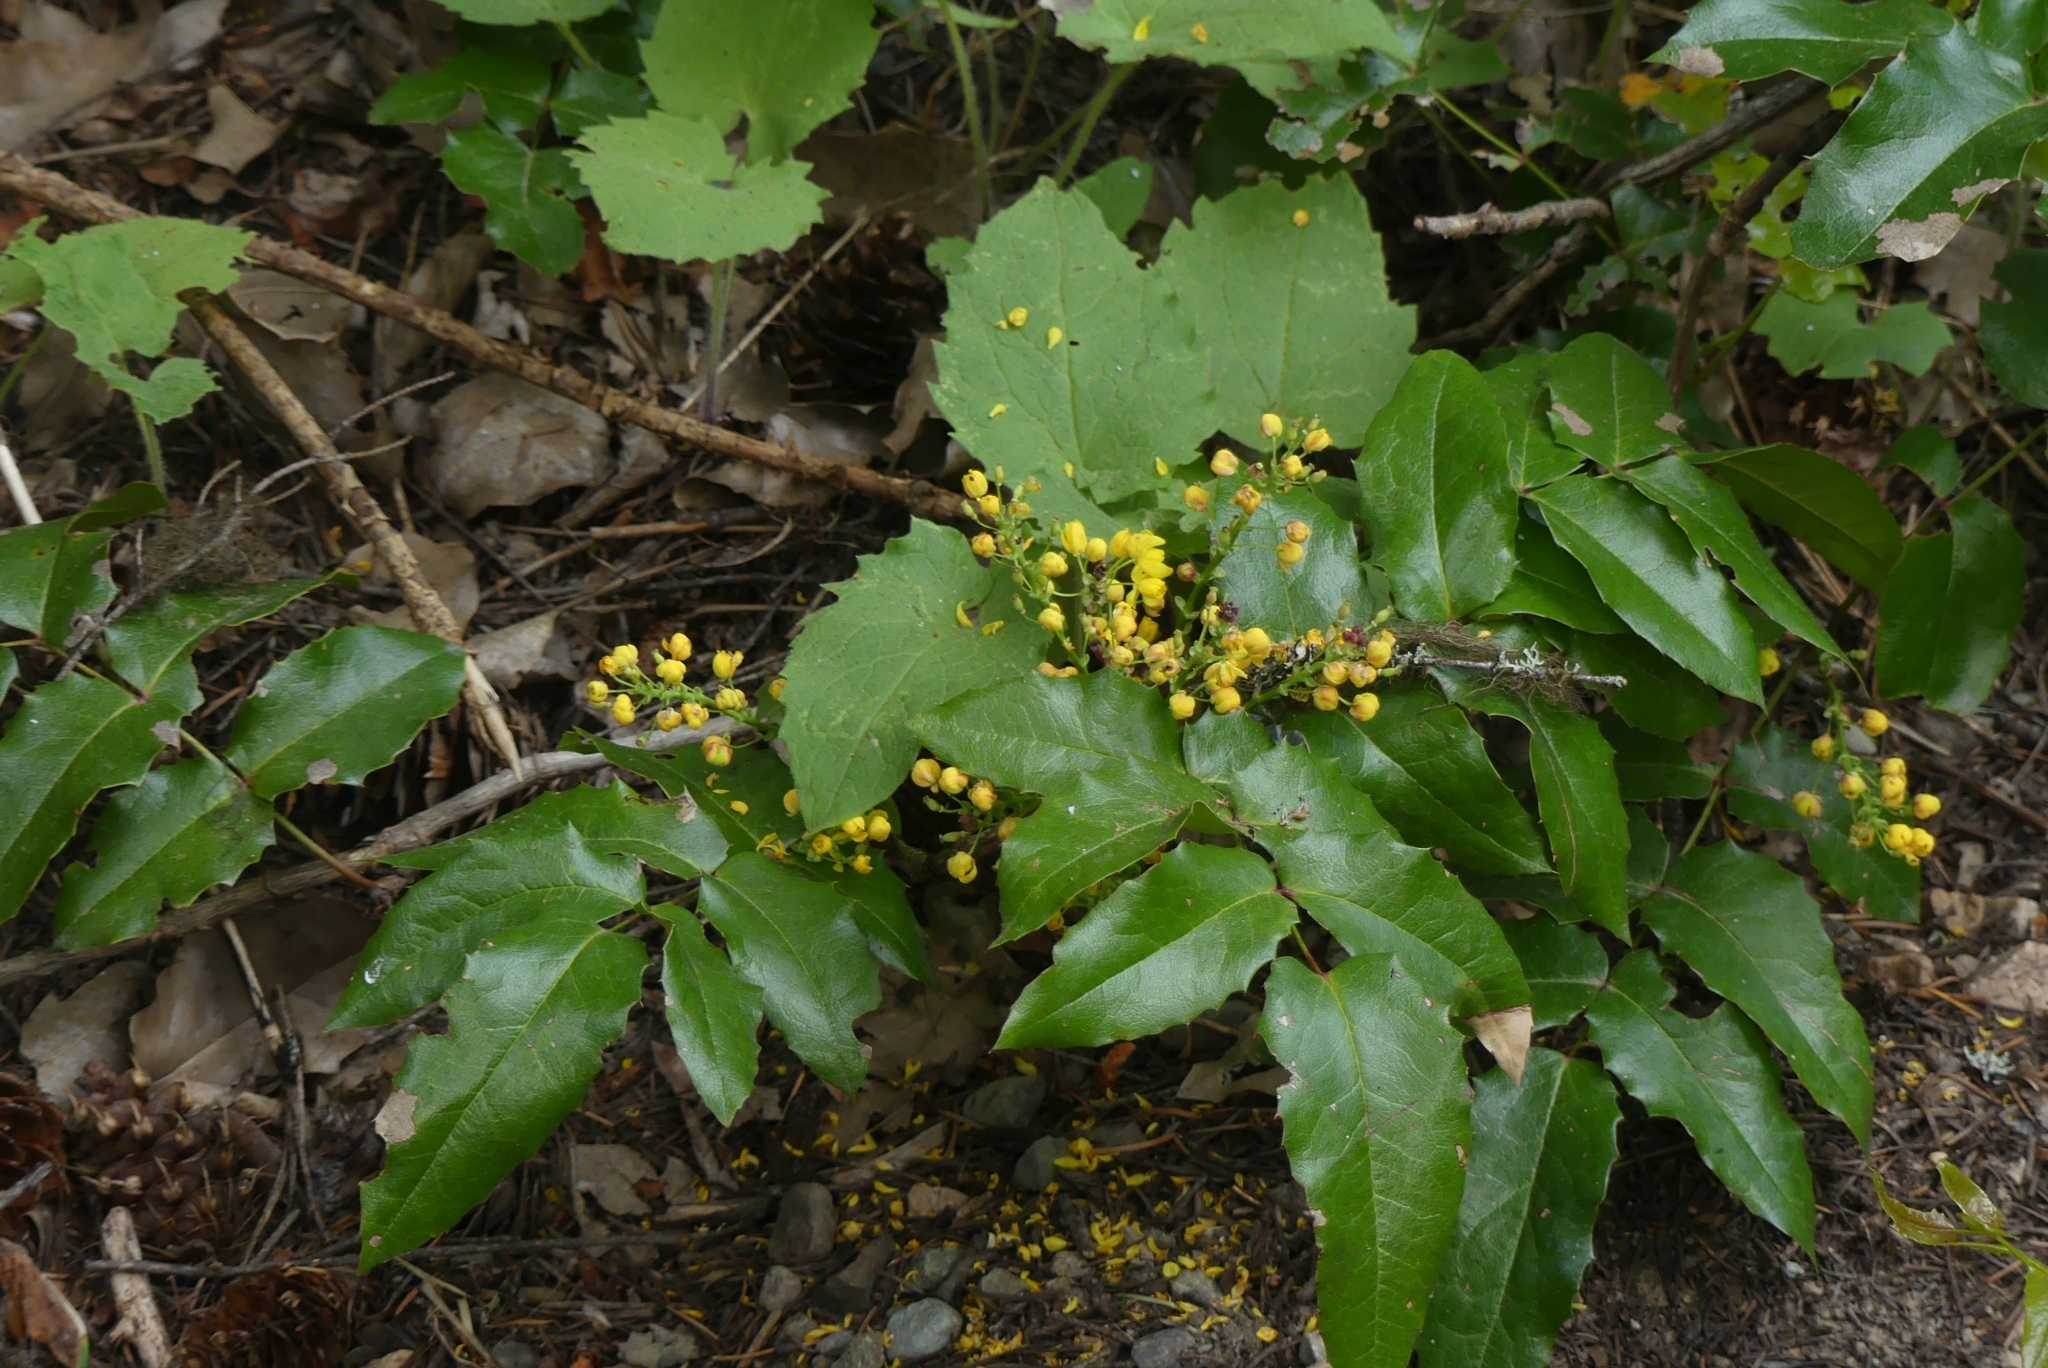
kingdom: Plantae
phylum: Tracheophyta
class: Magnoliopsida
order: Ranunculales
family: Berberidaceae
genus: Mahonia
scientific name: Mahonia aquifolium
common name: Oregon-grape
